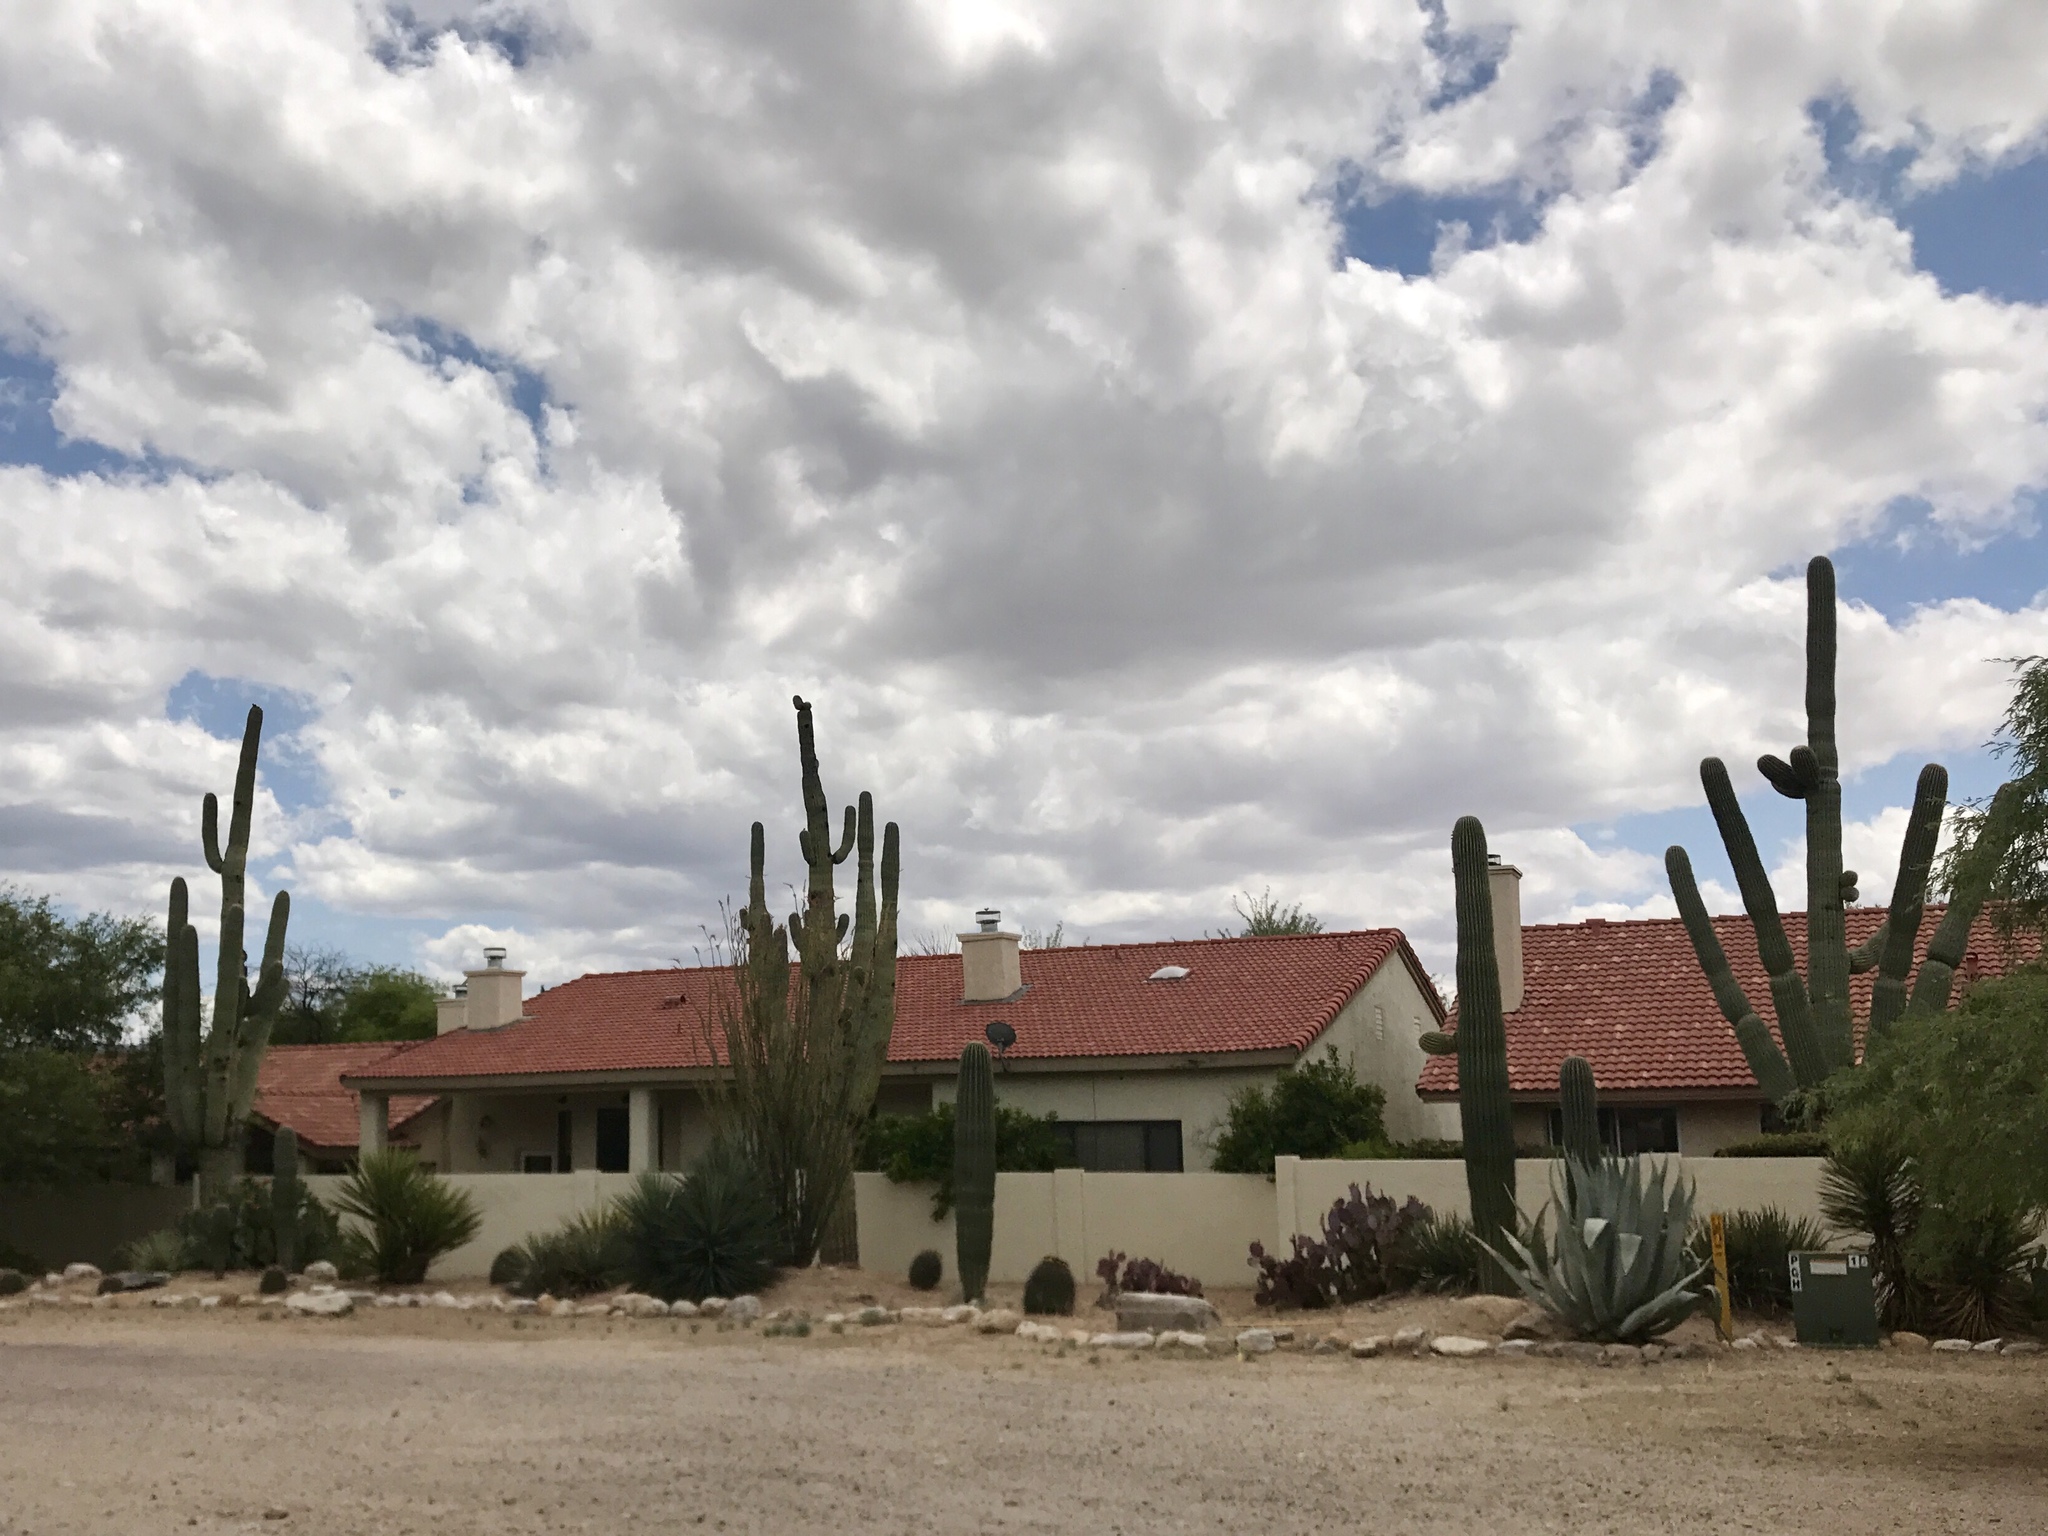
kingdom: Plantae
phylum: Tracheophyta
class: Magnoliopsida
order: Caryophyllales
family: Cactaceae
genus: Carnegiea
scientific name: Carnegiea gigantea
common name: Saguaro
